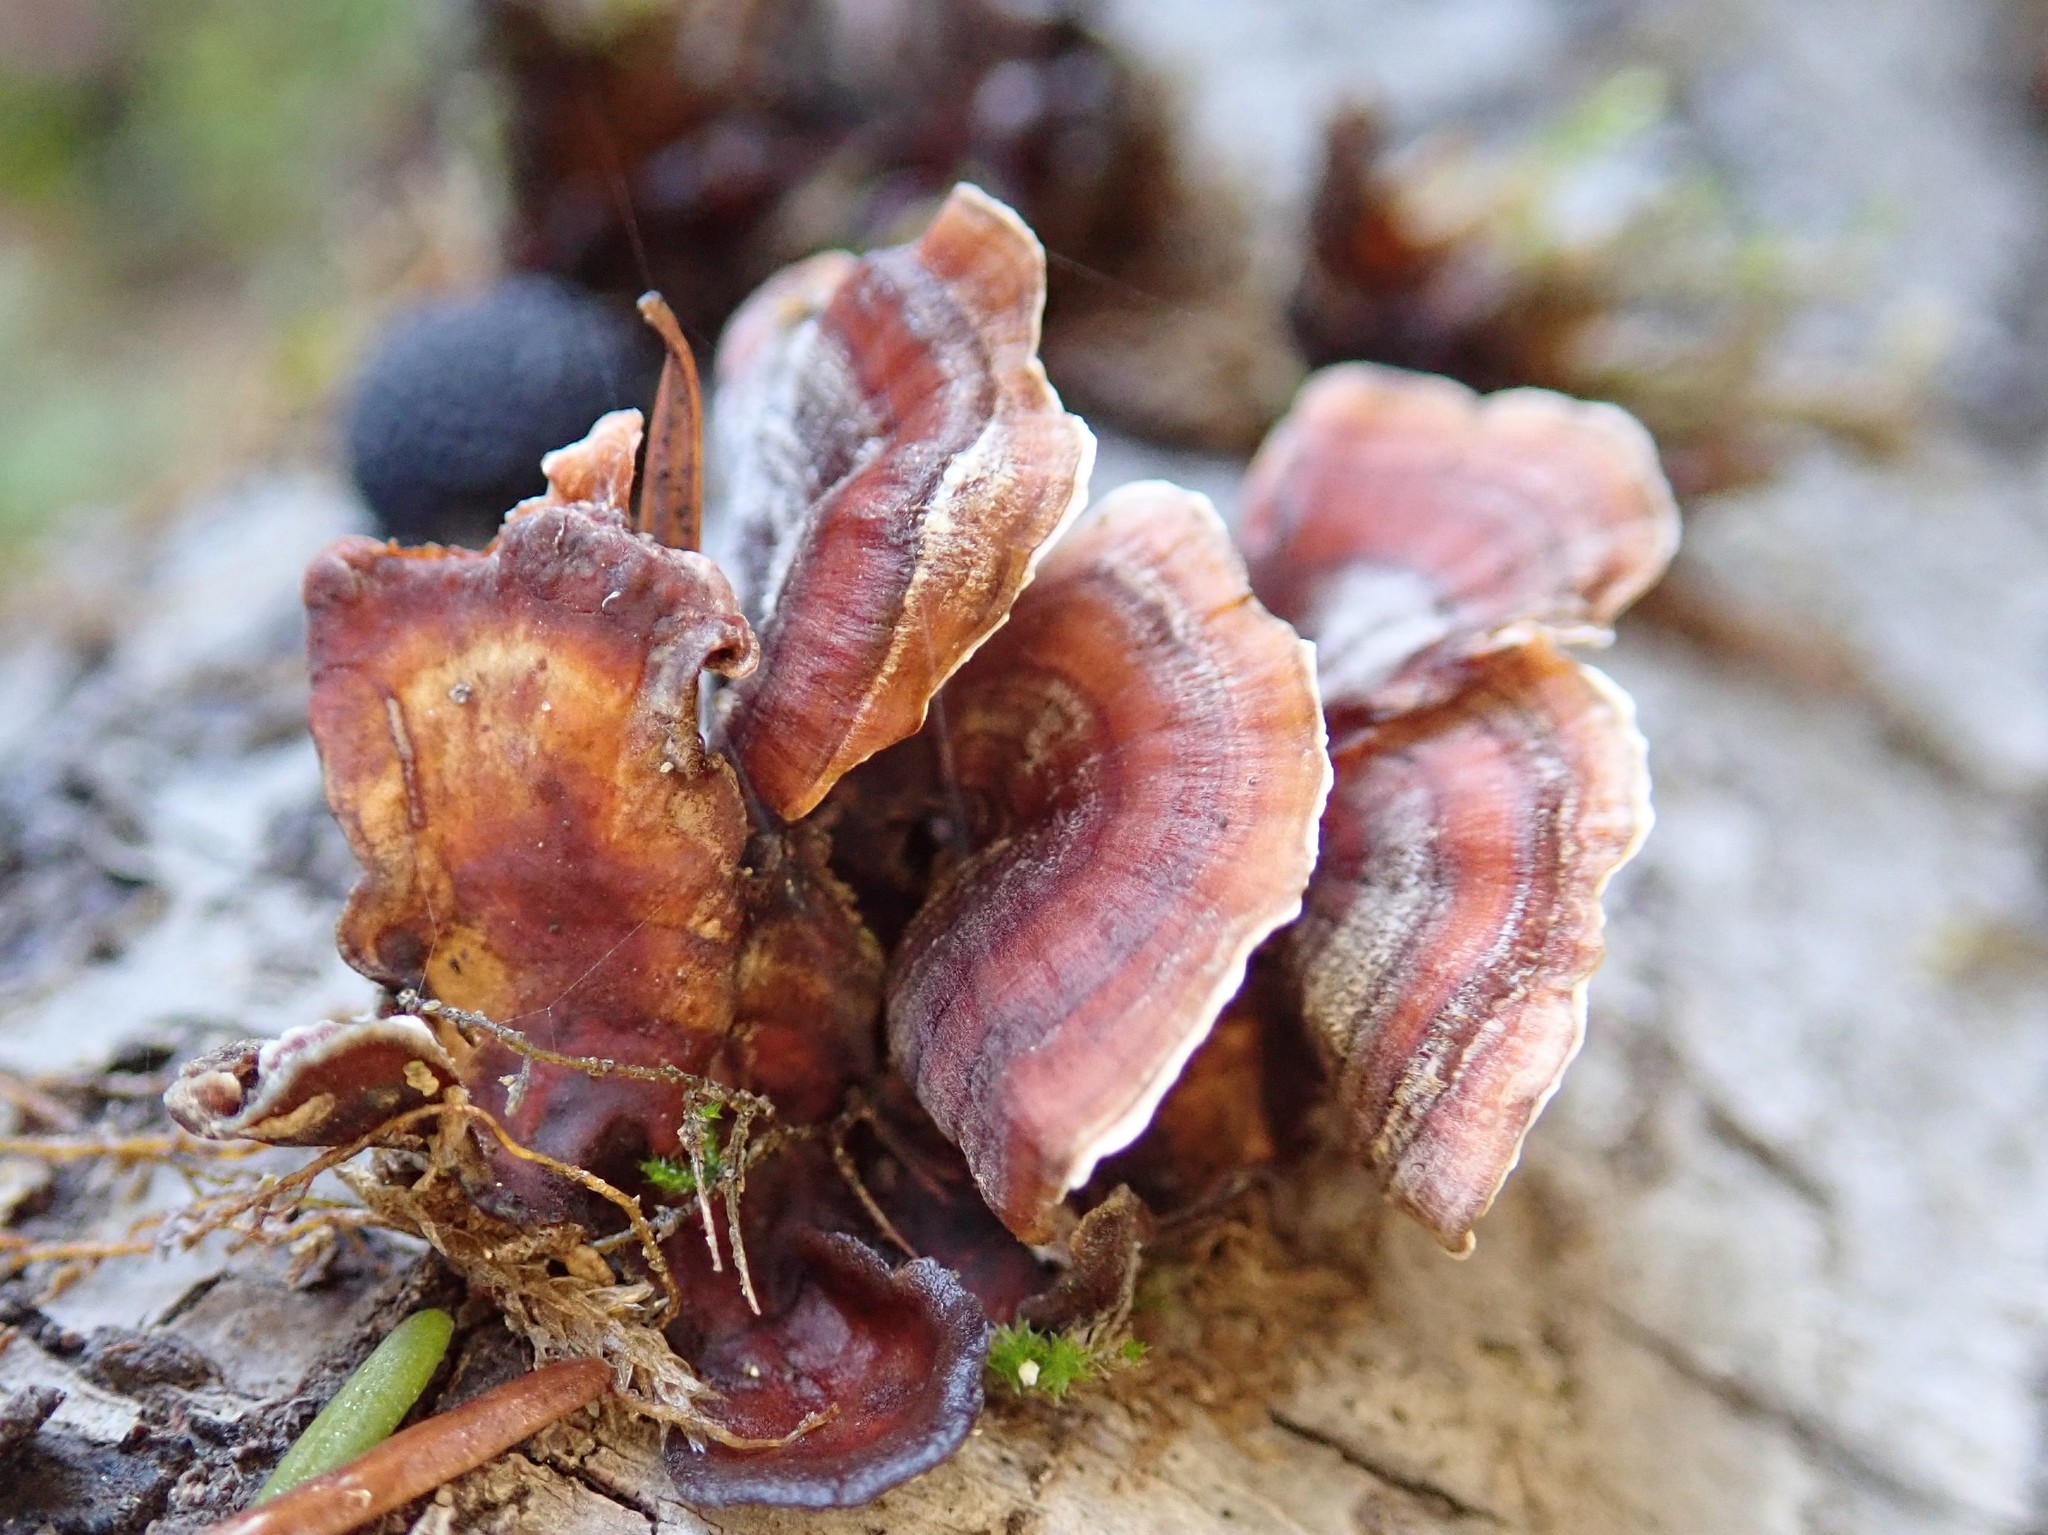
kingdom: Fungi
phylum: Basidiomycota
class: Agaricomycetes
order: Russulales
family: Stereaceae
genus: Stereum
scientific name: Stereum hirsutum
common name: Hairy curtain crust
